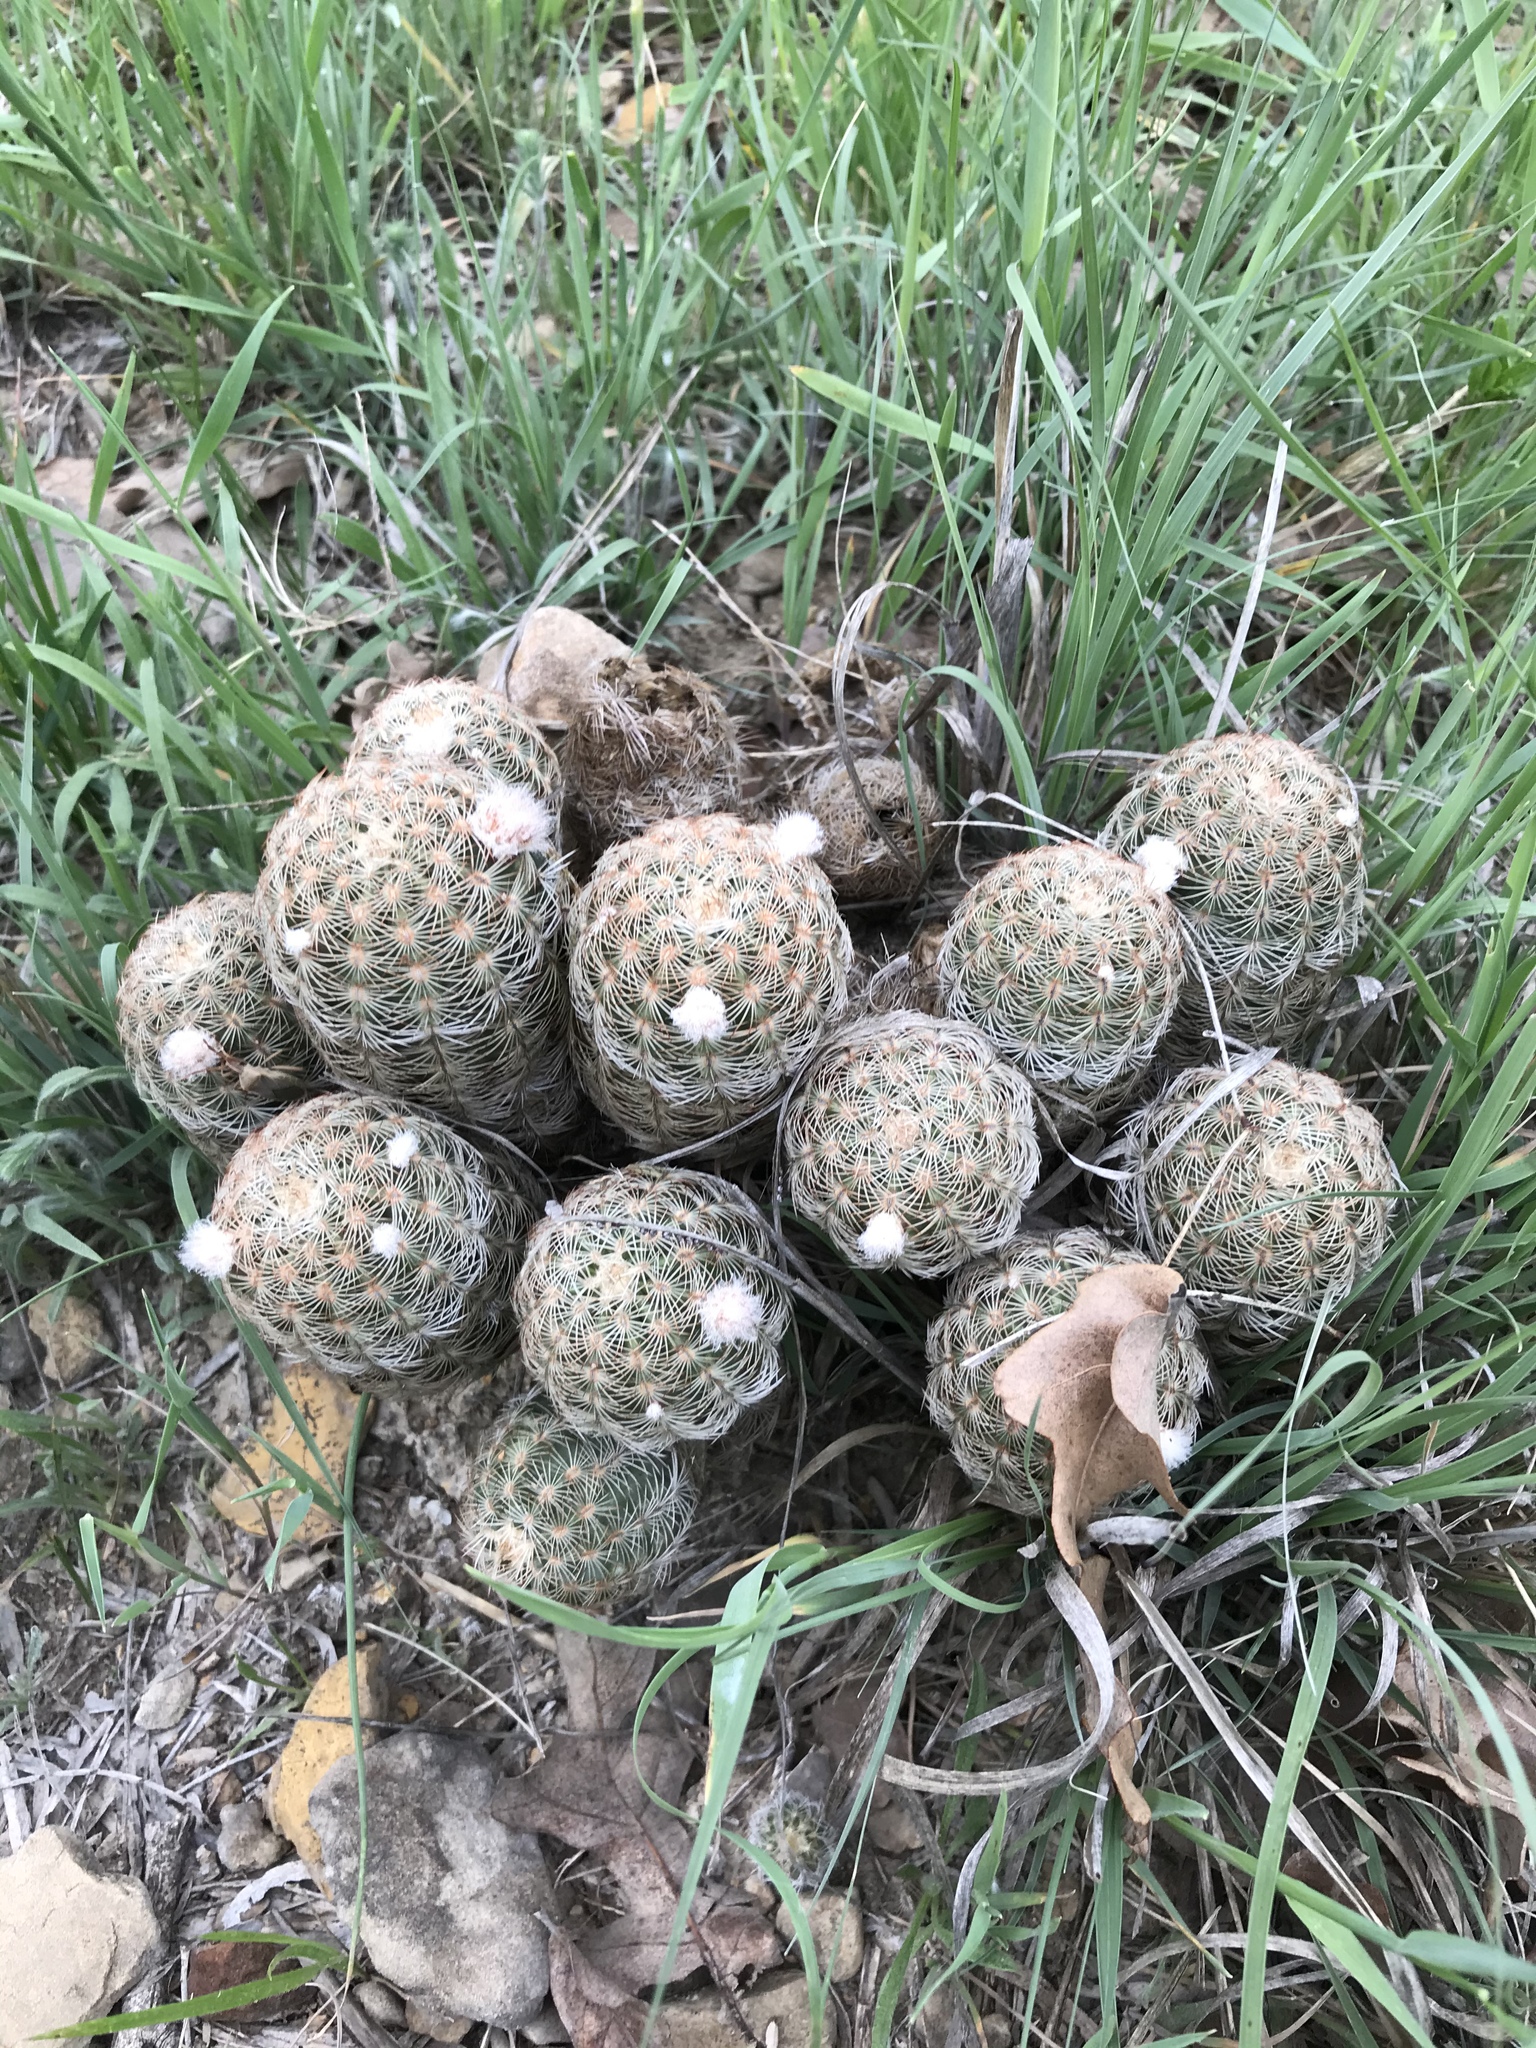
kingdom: Plantae
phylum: Tracheophyta
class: Magnoliopsida
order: Caryophyllales
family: Cactaceae
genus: Echinocereus
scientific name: Echinocereus reichenbachii
